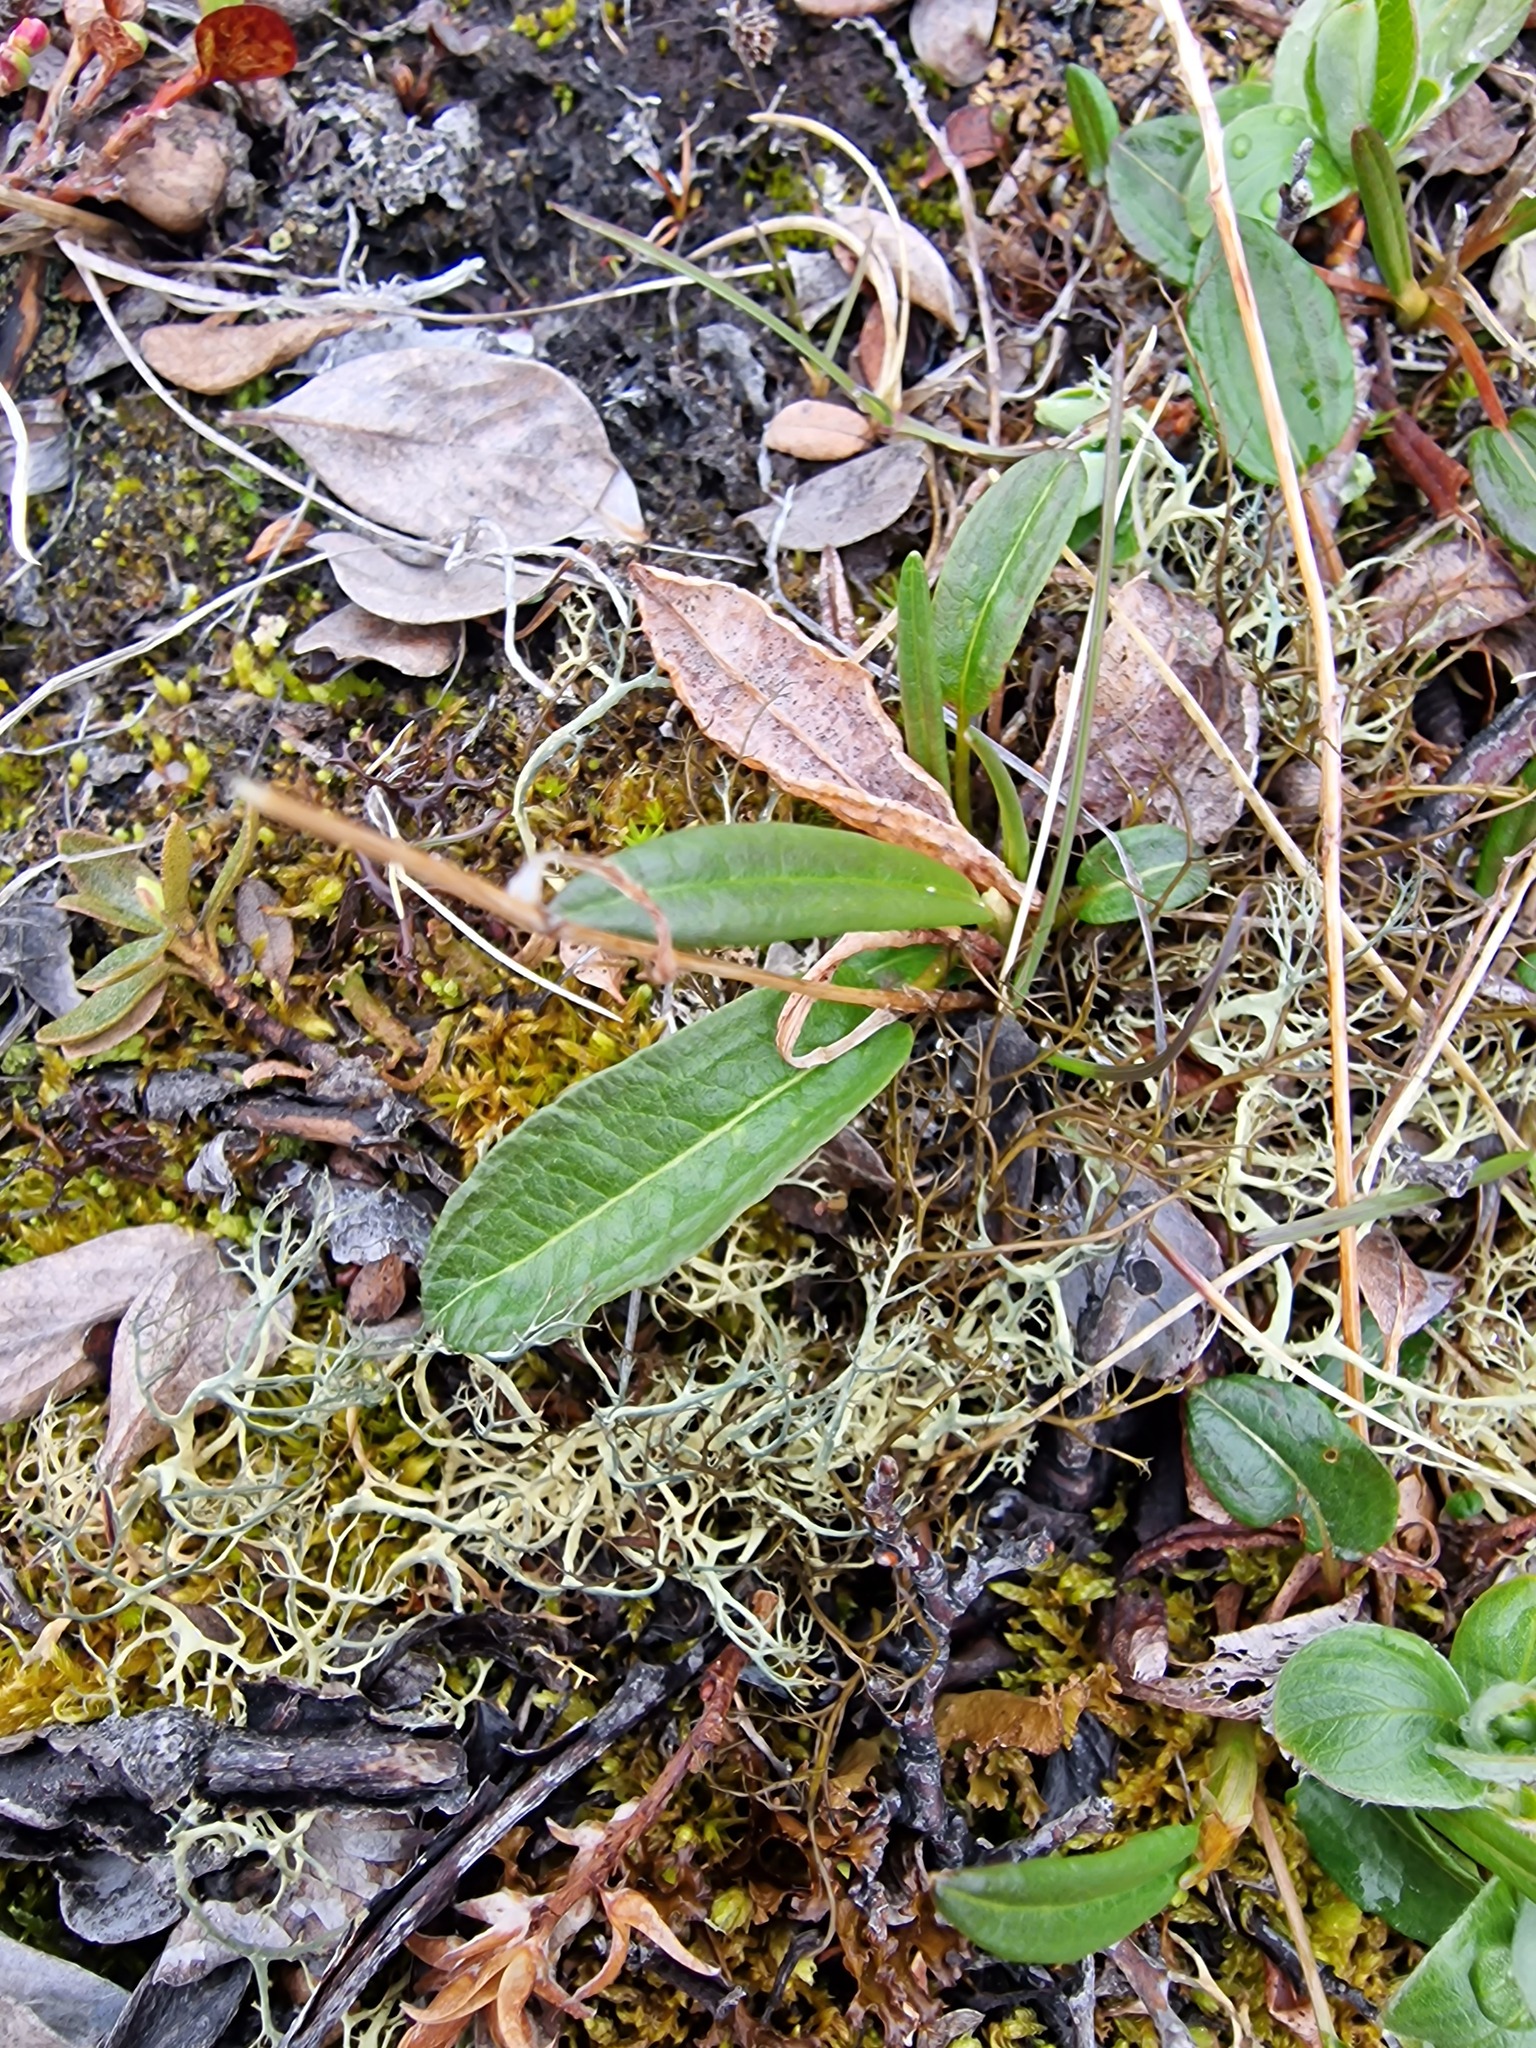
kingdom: Plantae
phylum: Tracheophyta
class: Magnoliopsida
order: Caryophyllales
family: Polygonaceae
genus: Bistorta
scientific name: Bistorta vivipara
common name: Alpine bistort
